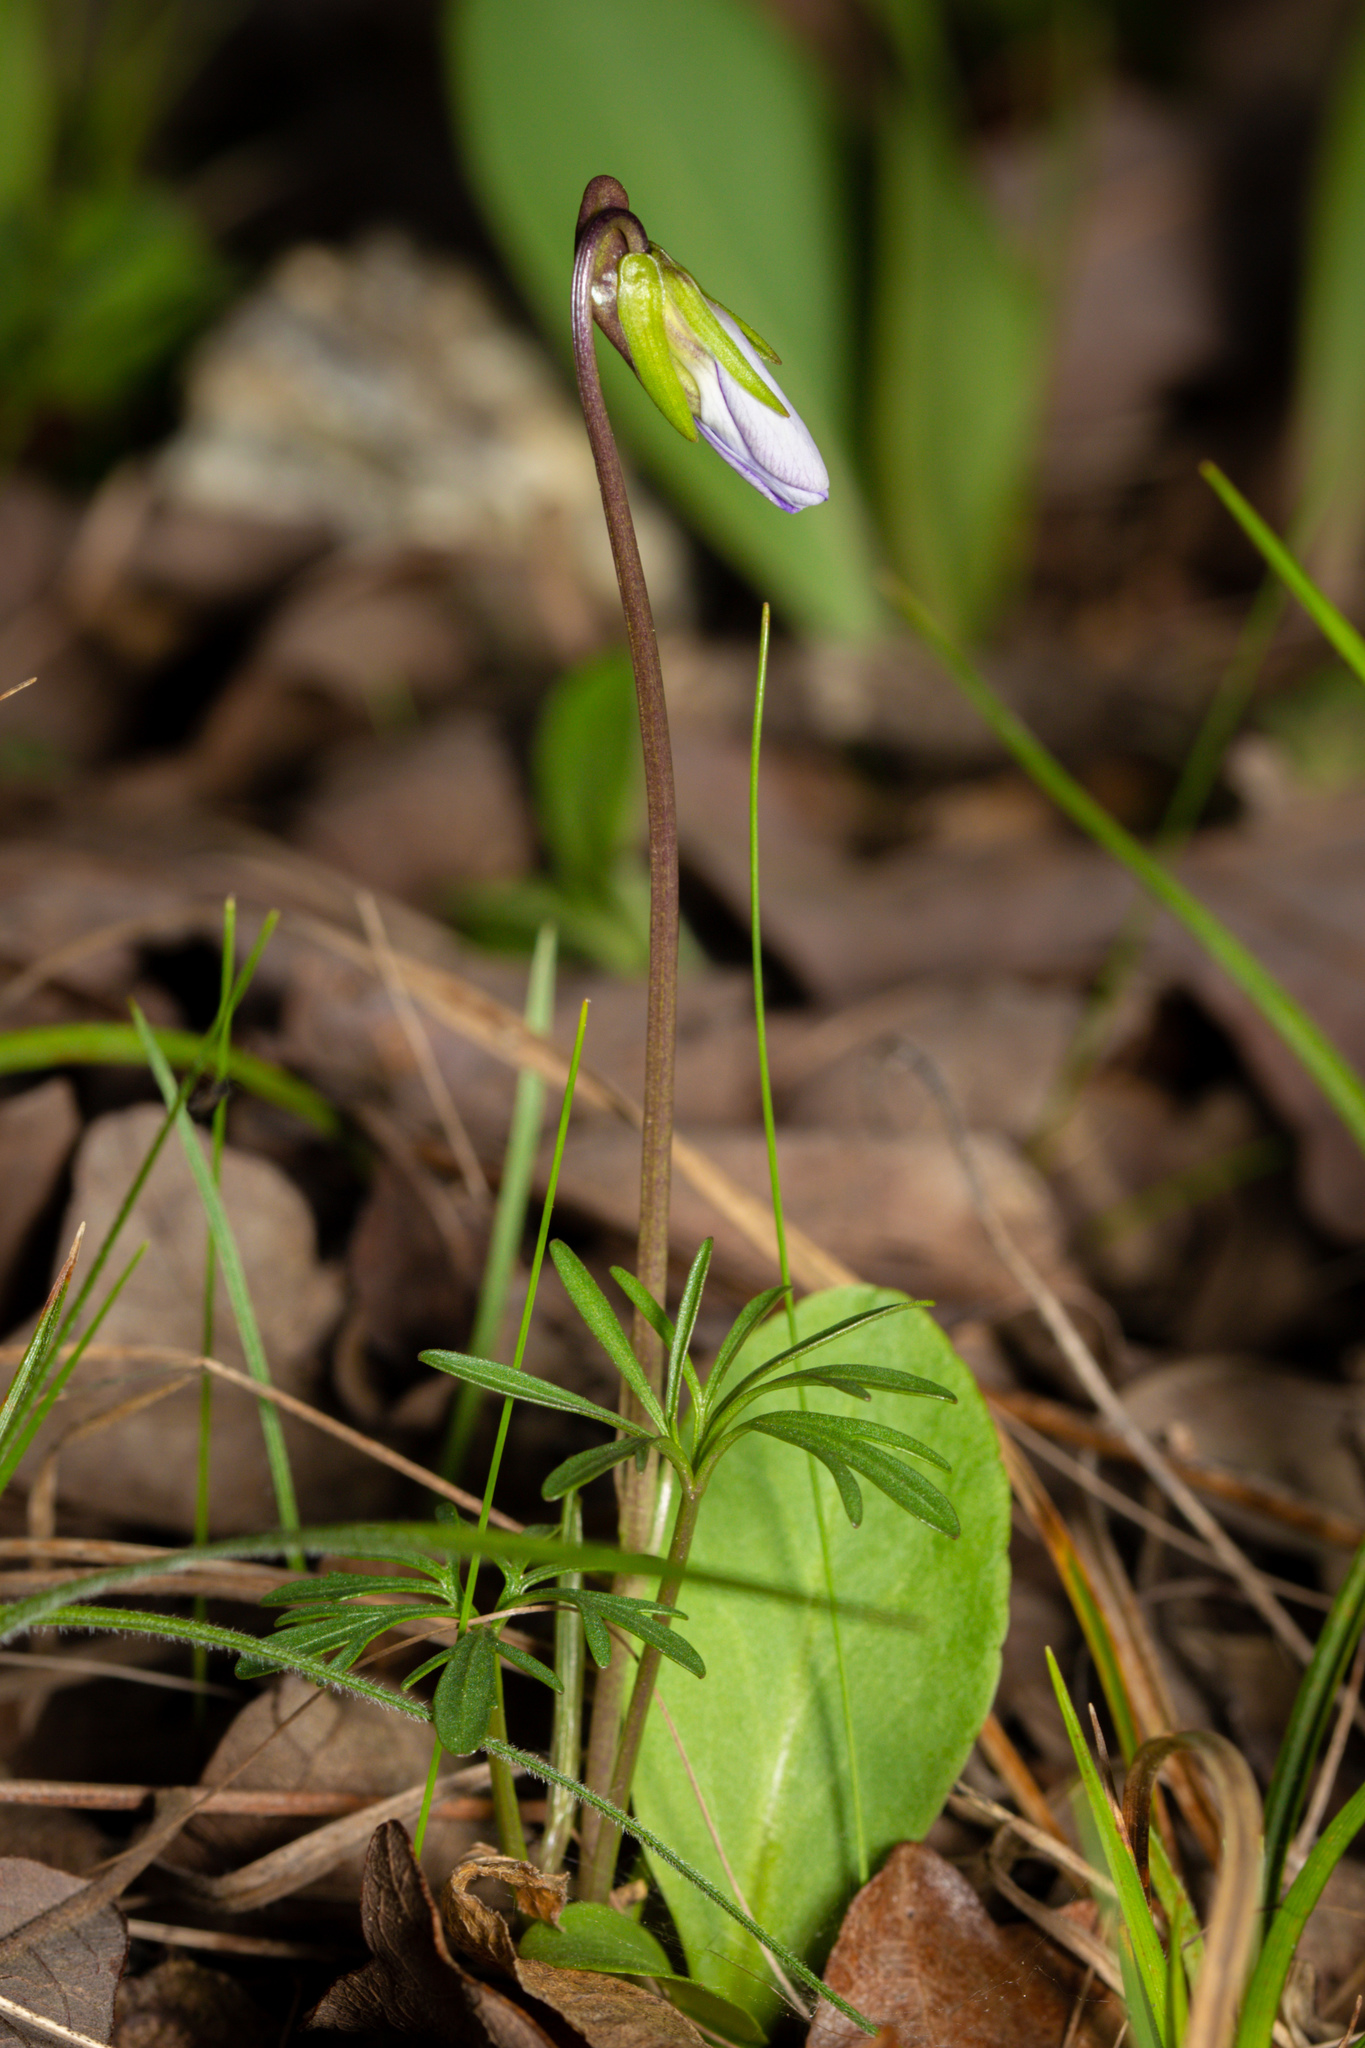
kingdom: Plantae
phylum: Tracheophyta
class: Magnoliopsida
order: Malpighiales
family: Violaceae
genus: Viola
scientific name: Viola pedata
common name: Pansy violet
